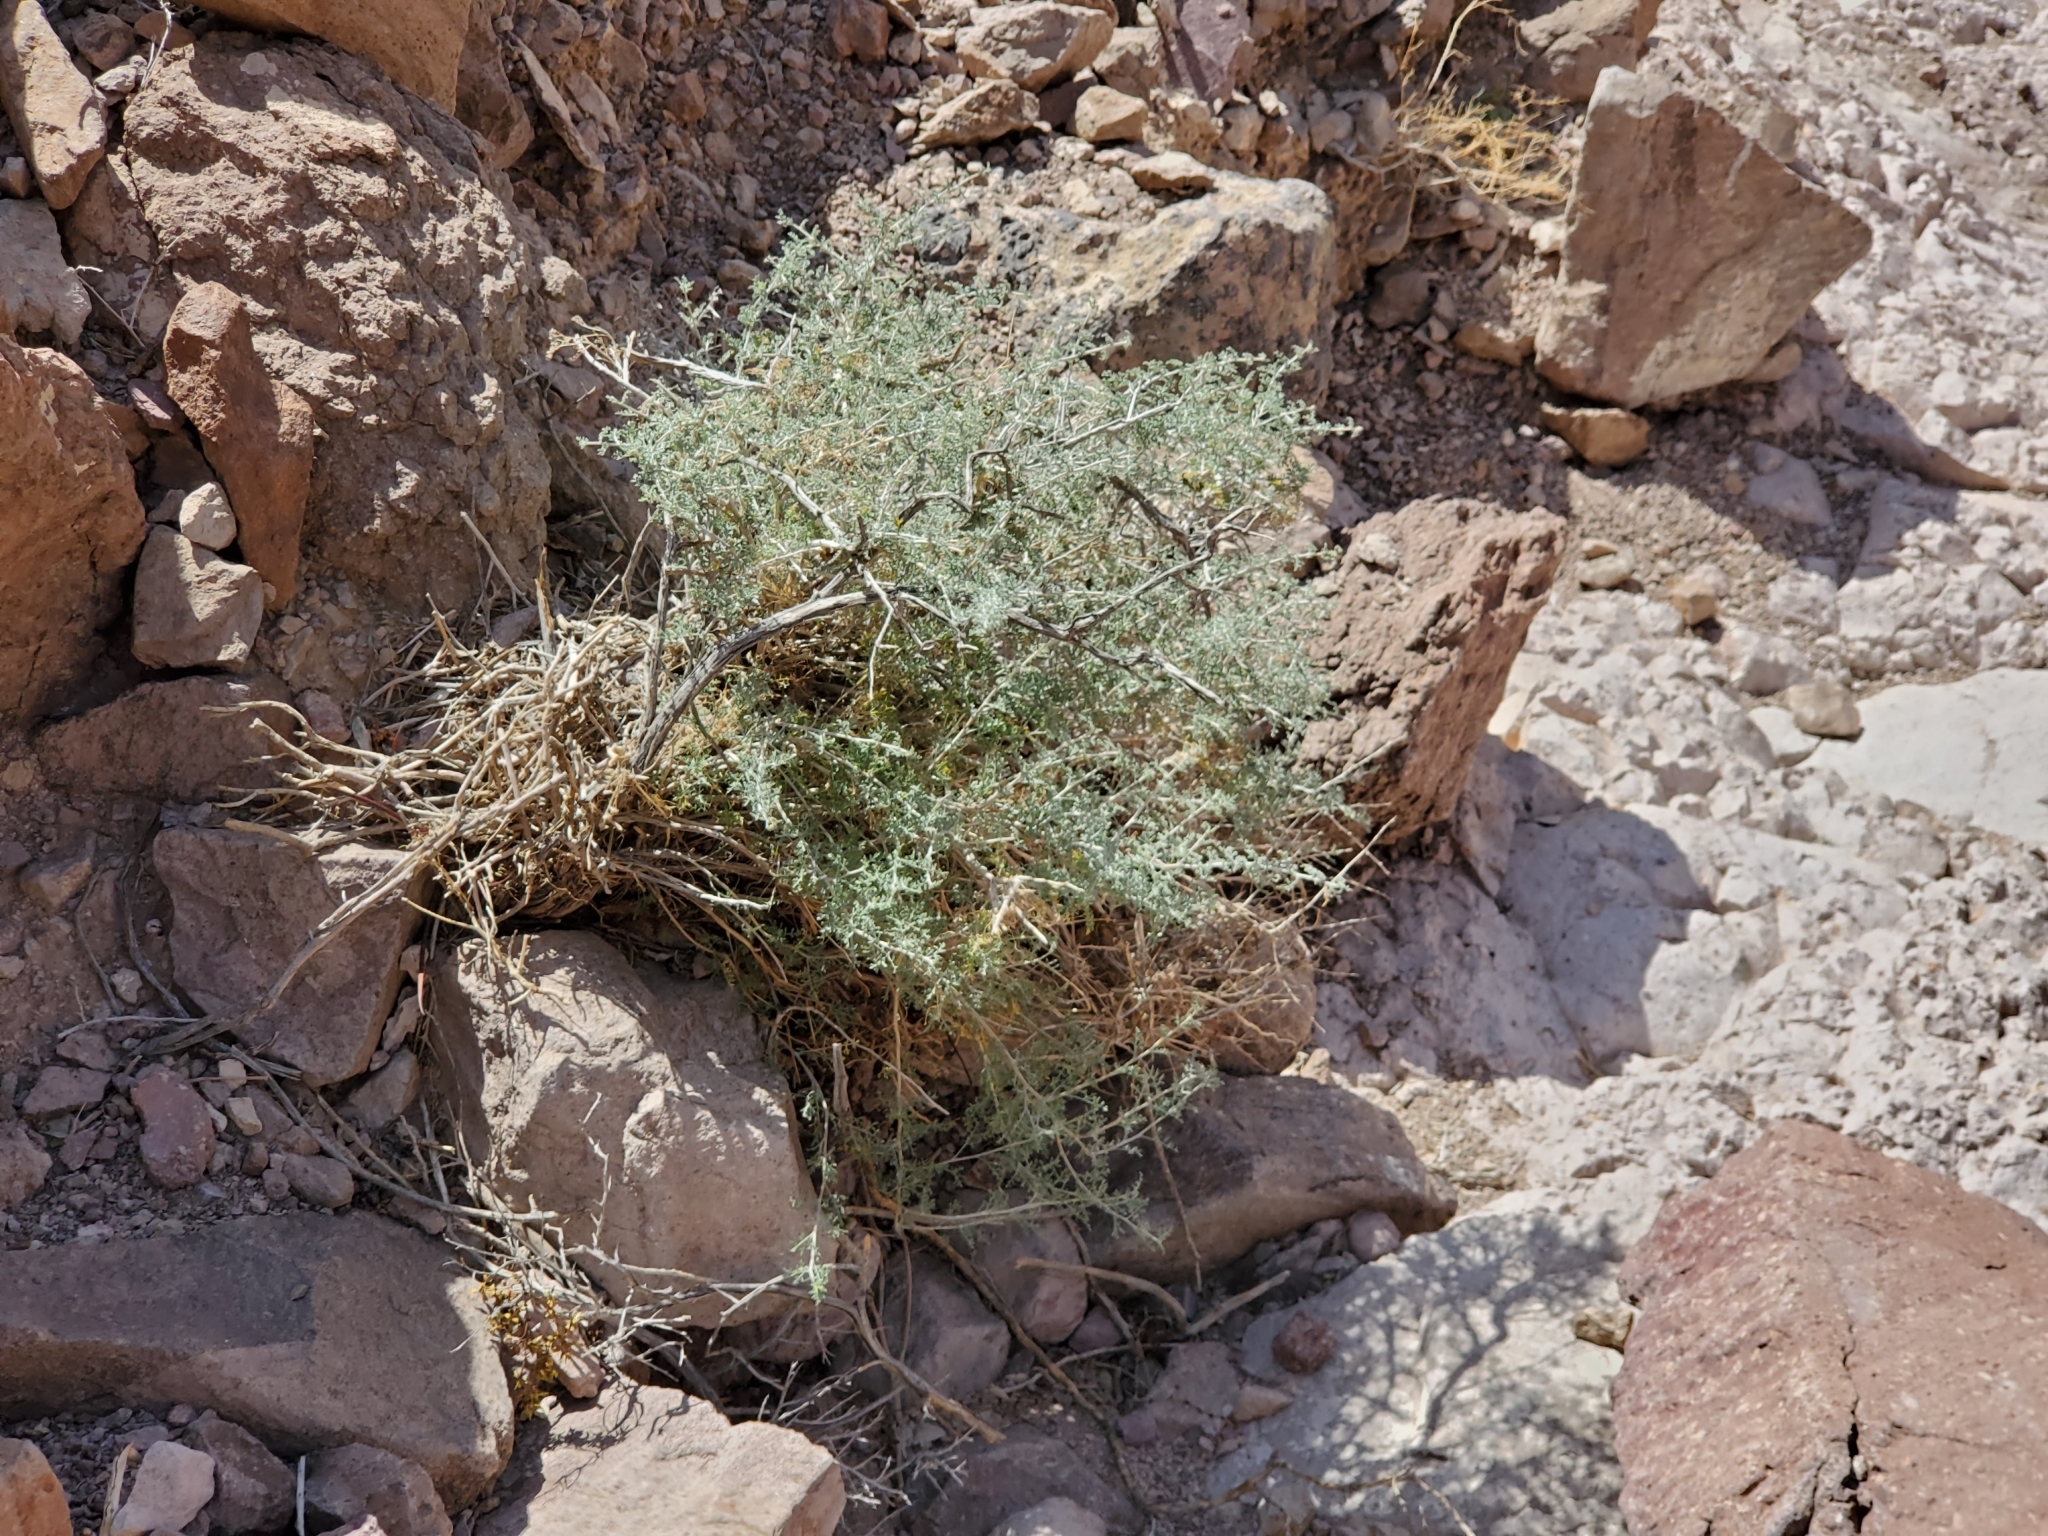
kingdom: Plantae
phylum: Tracheophyta
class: Magnoliopsida
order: Asterales
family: Asteraceae
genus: Ambrosia
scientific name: Ambrosia dumosa
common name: Bur-sage
